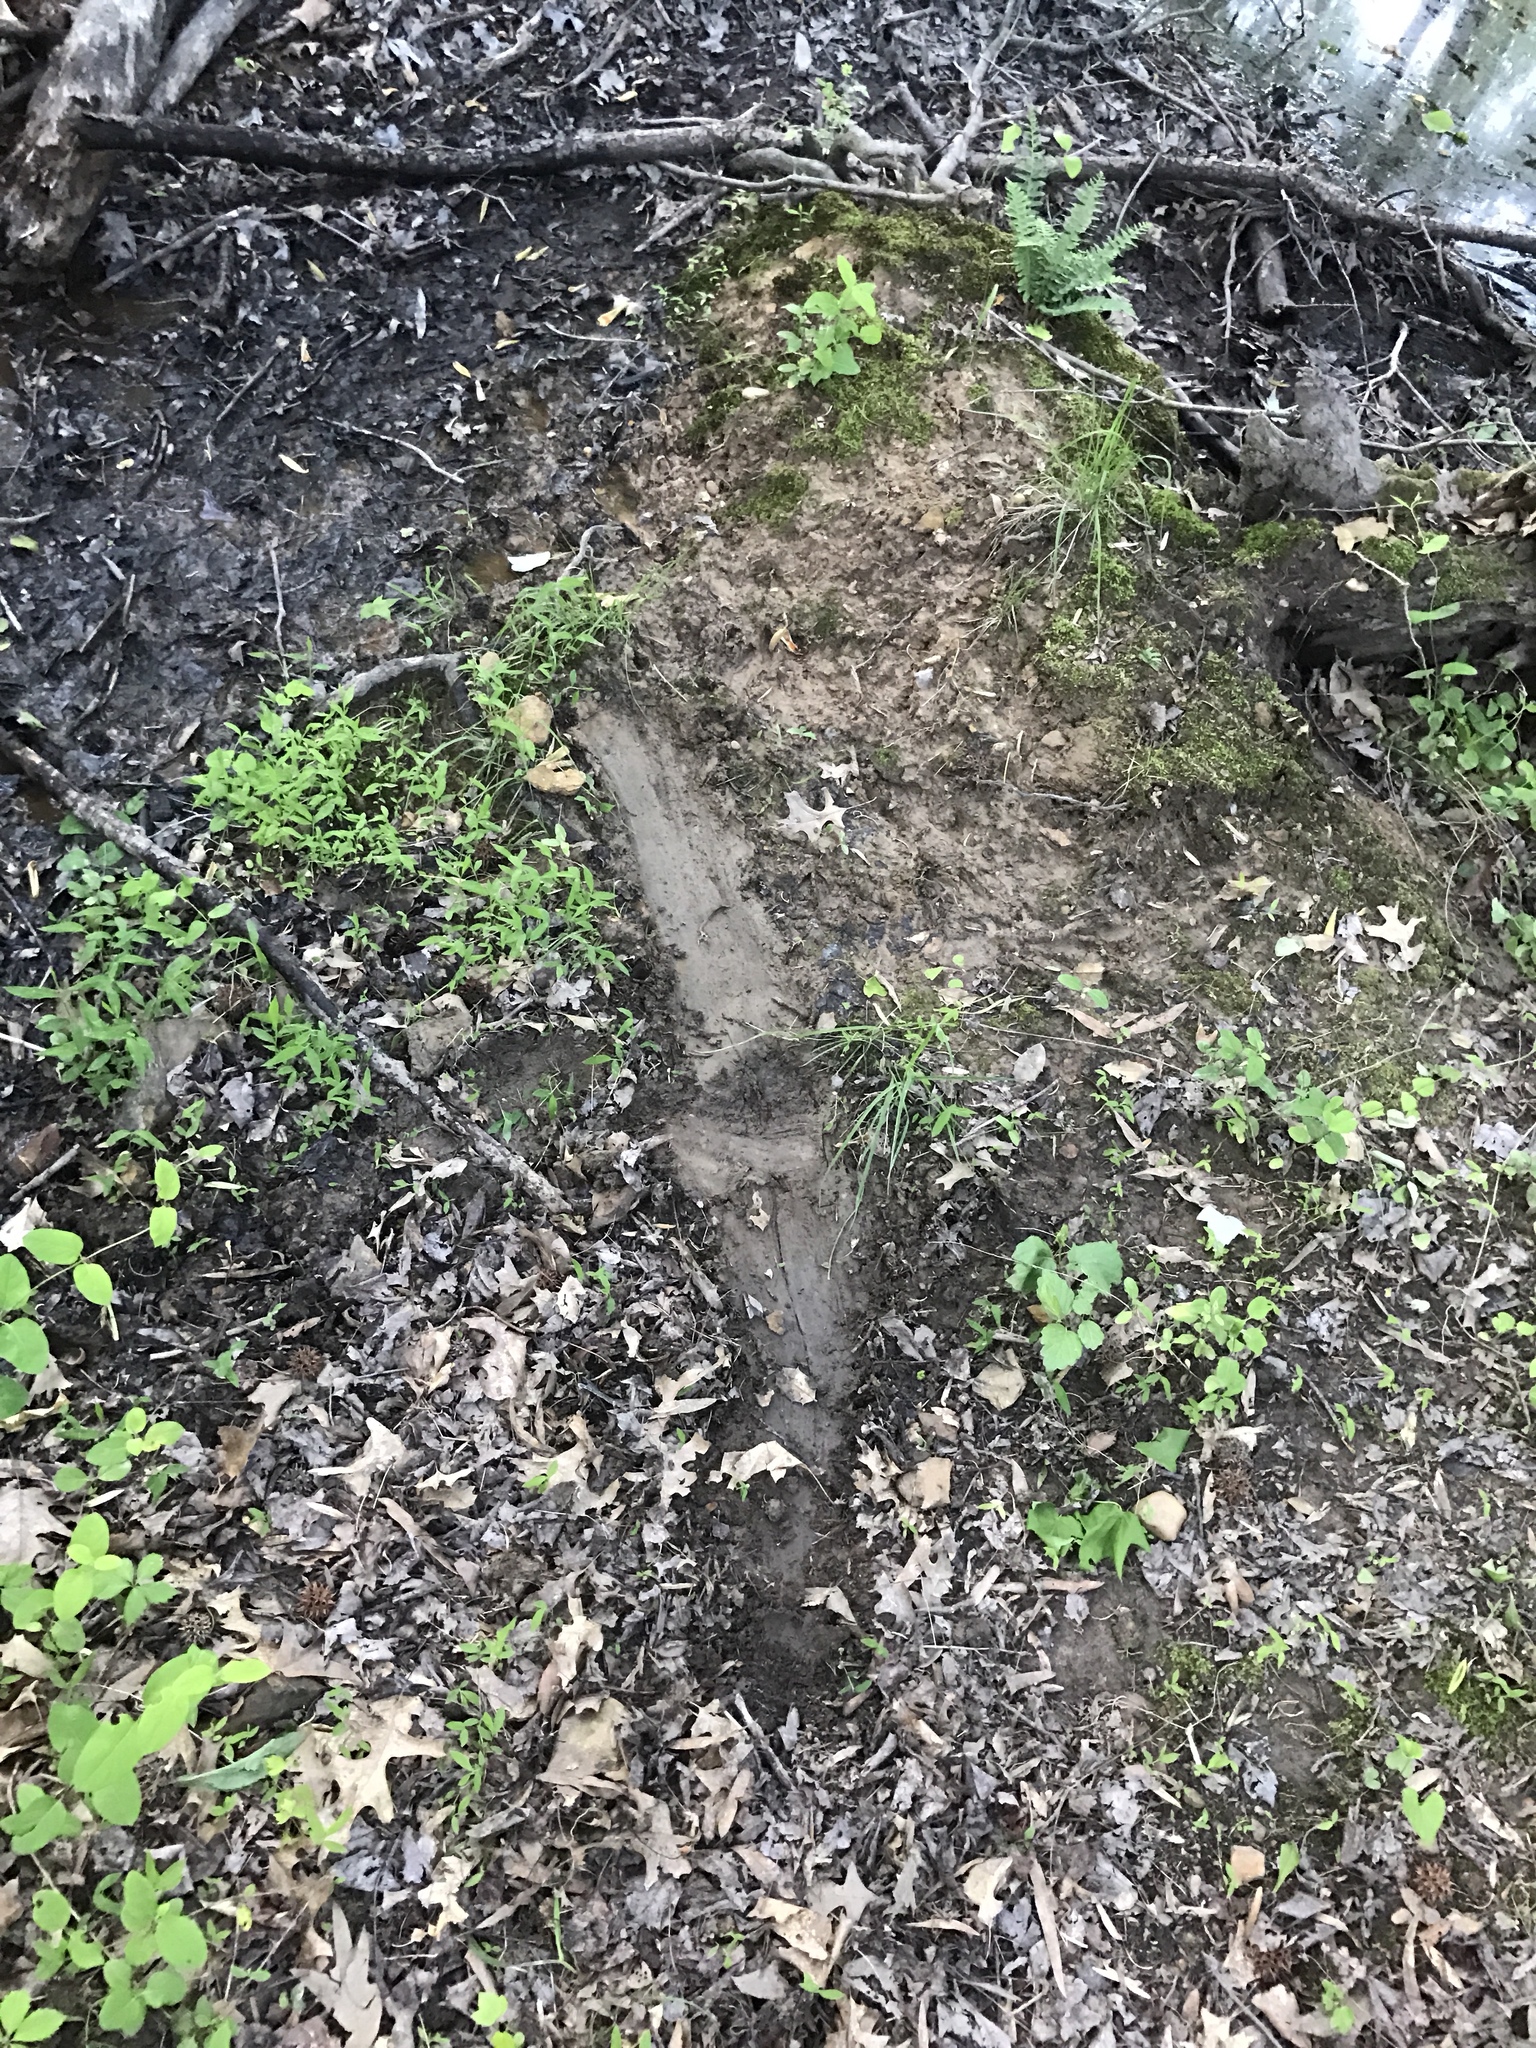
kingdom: Animalia
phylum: Chordata
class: Mammalia
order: Rodentia
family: Castoridae
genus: Castor
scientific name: Castor canadensis
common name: American beaver
